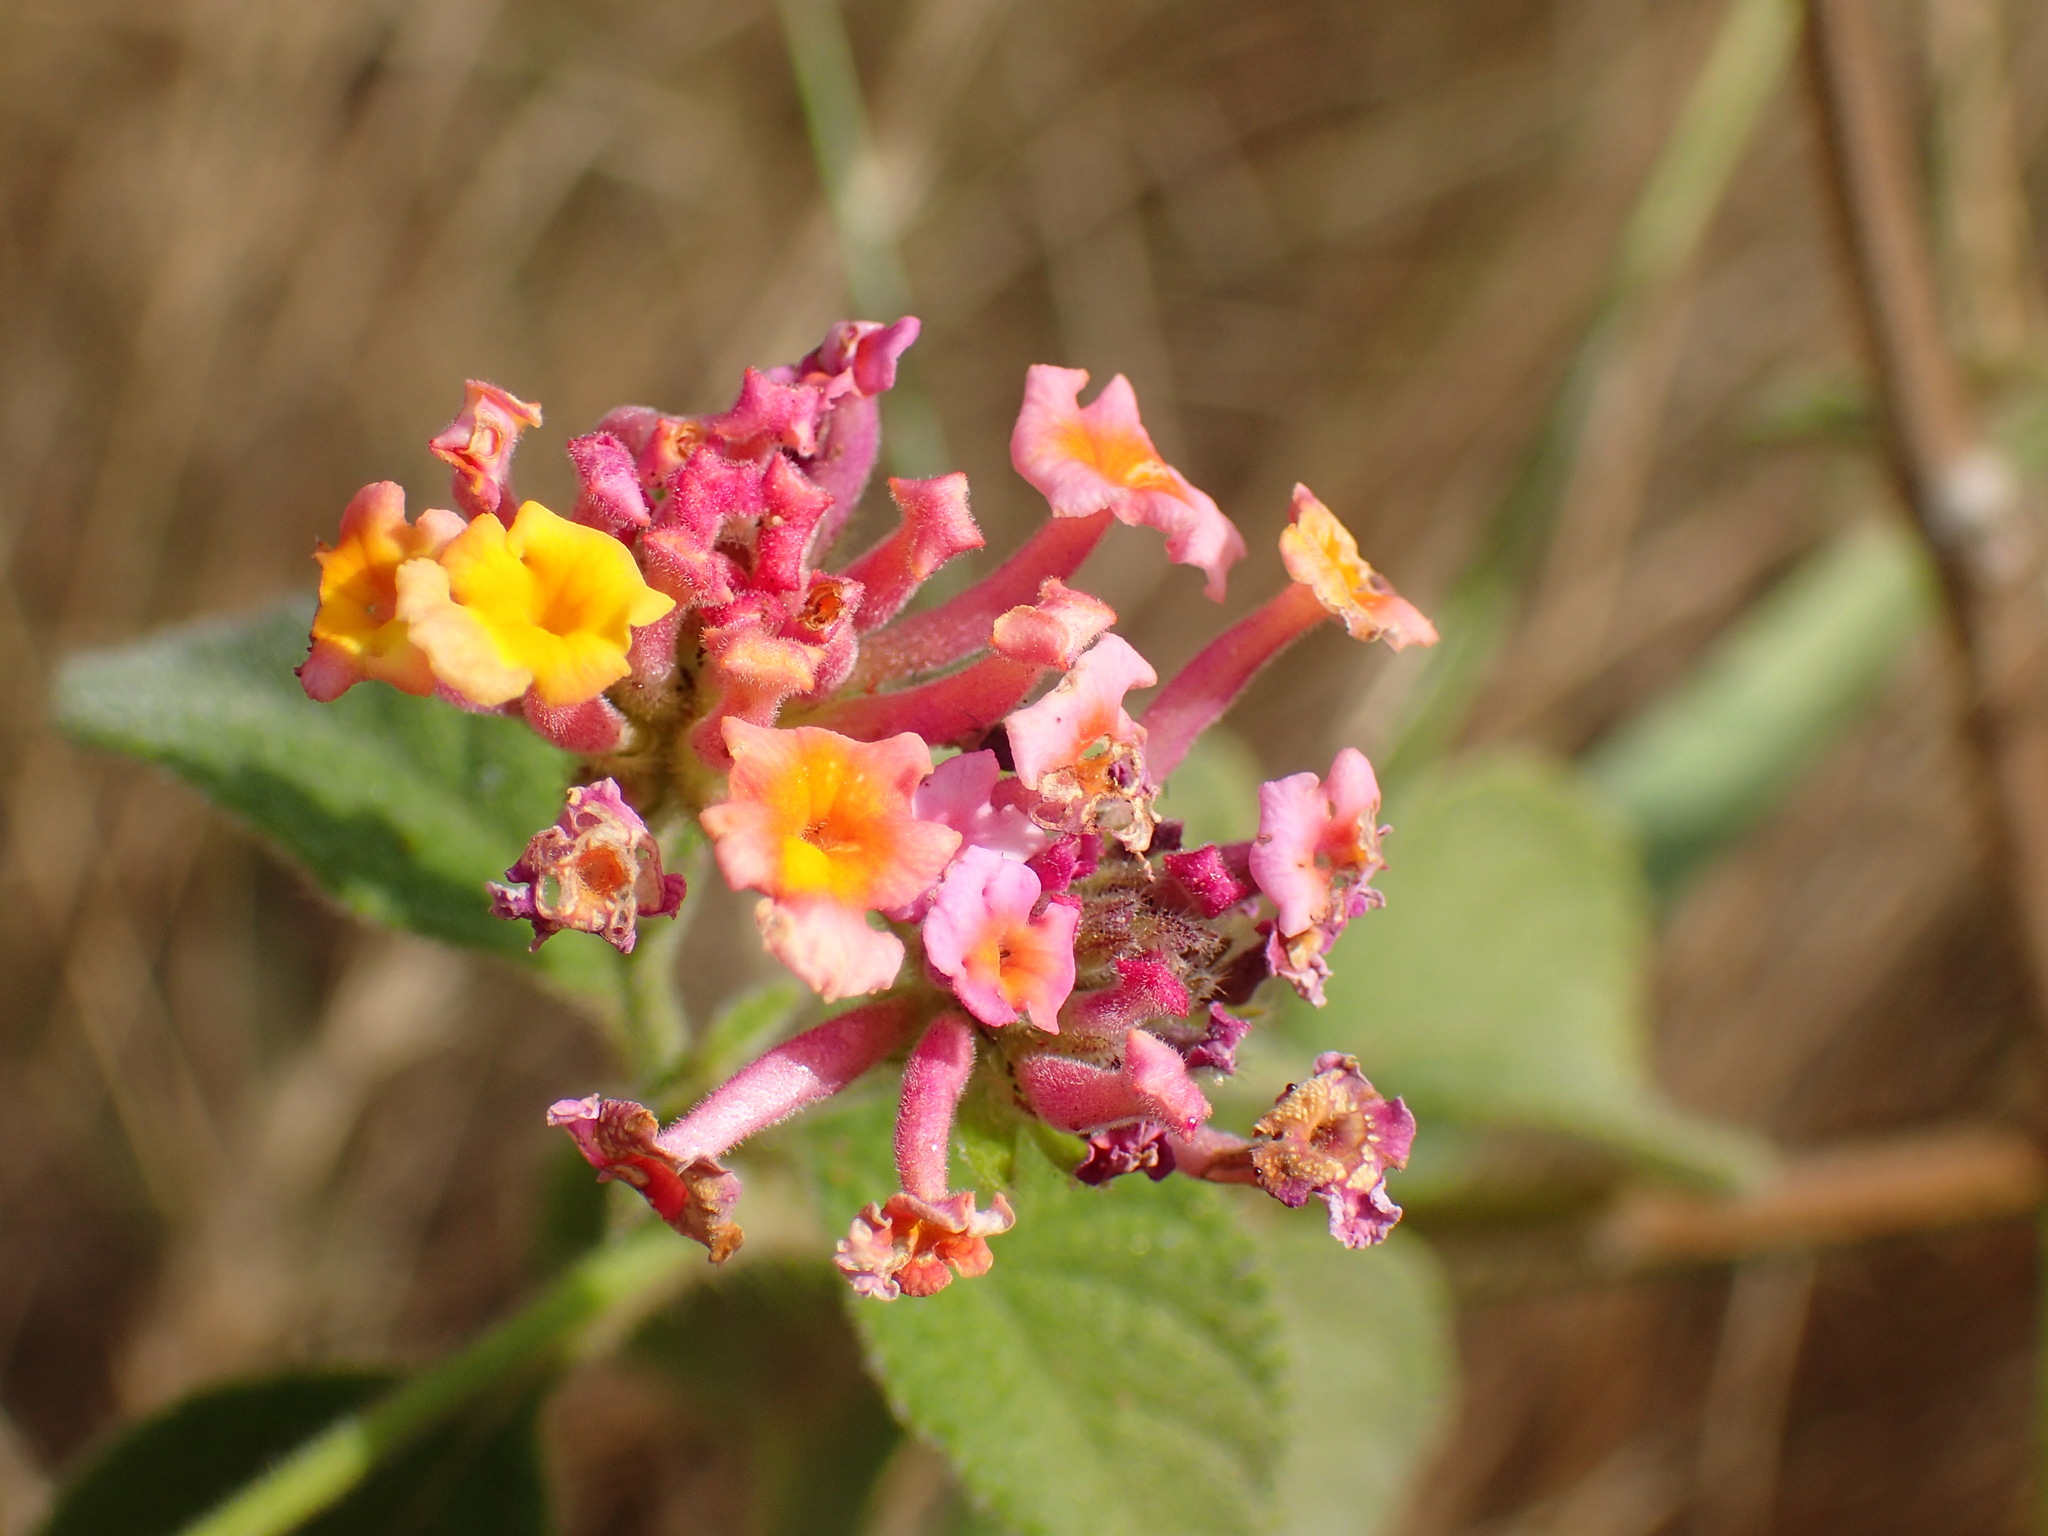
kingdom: Plantae
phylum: Tracheophyta
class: Magnoliopsida
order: Lamiales
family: Verbenaceae
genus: Lantana
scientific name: Lantana camara
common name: Lantana
